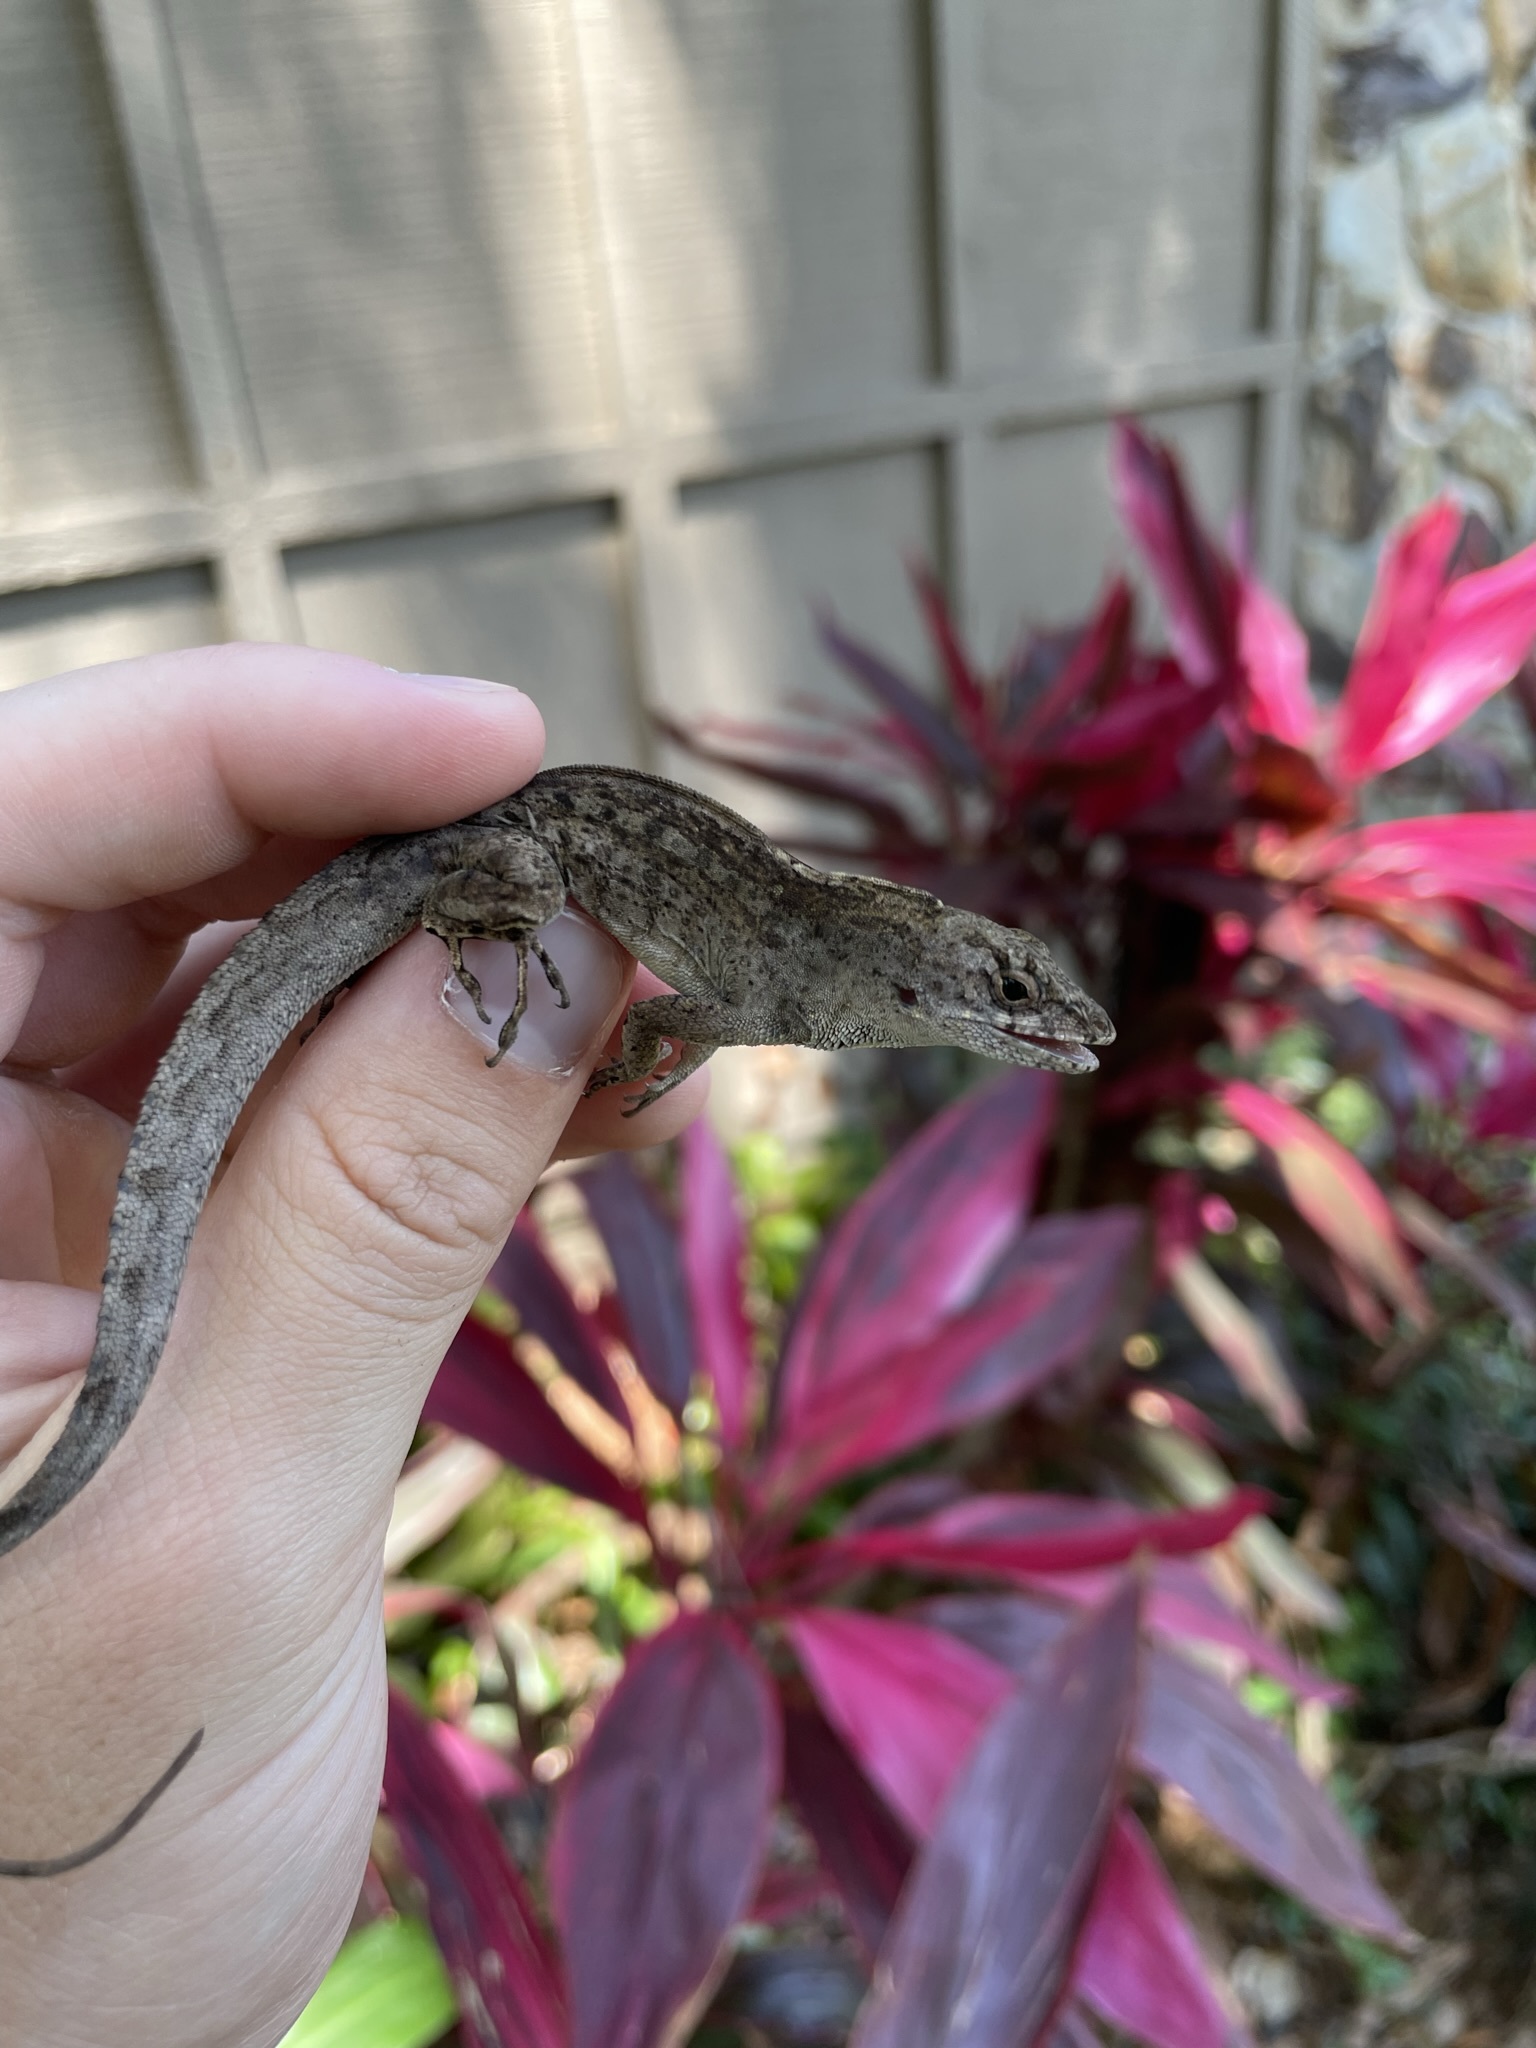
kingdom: Animalia
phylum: Chordata
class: Squamata
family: Dactyloidae
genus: Anolis
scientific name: Anolis sagrei
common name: Brown anole
